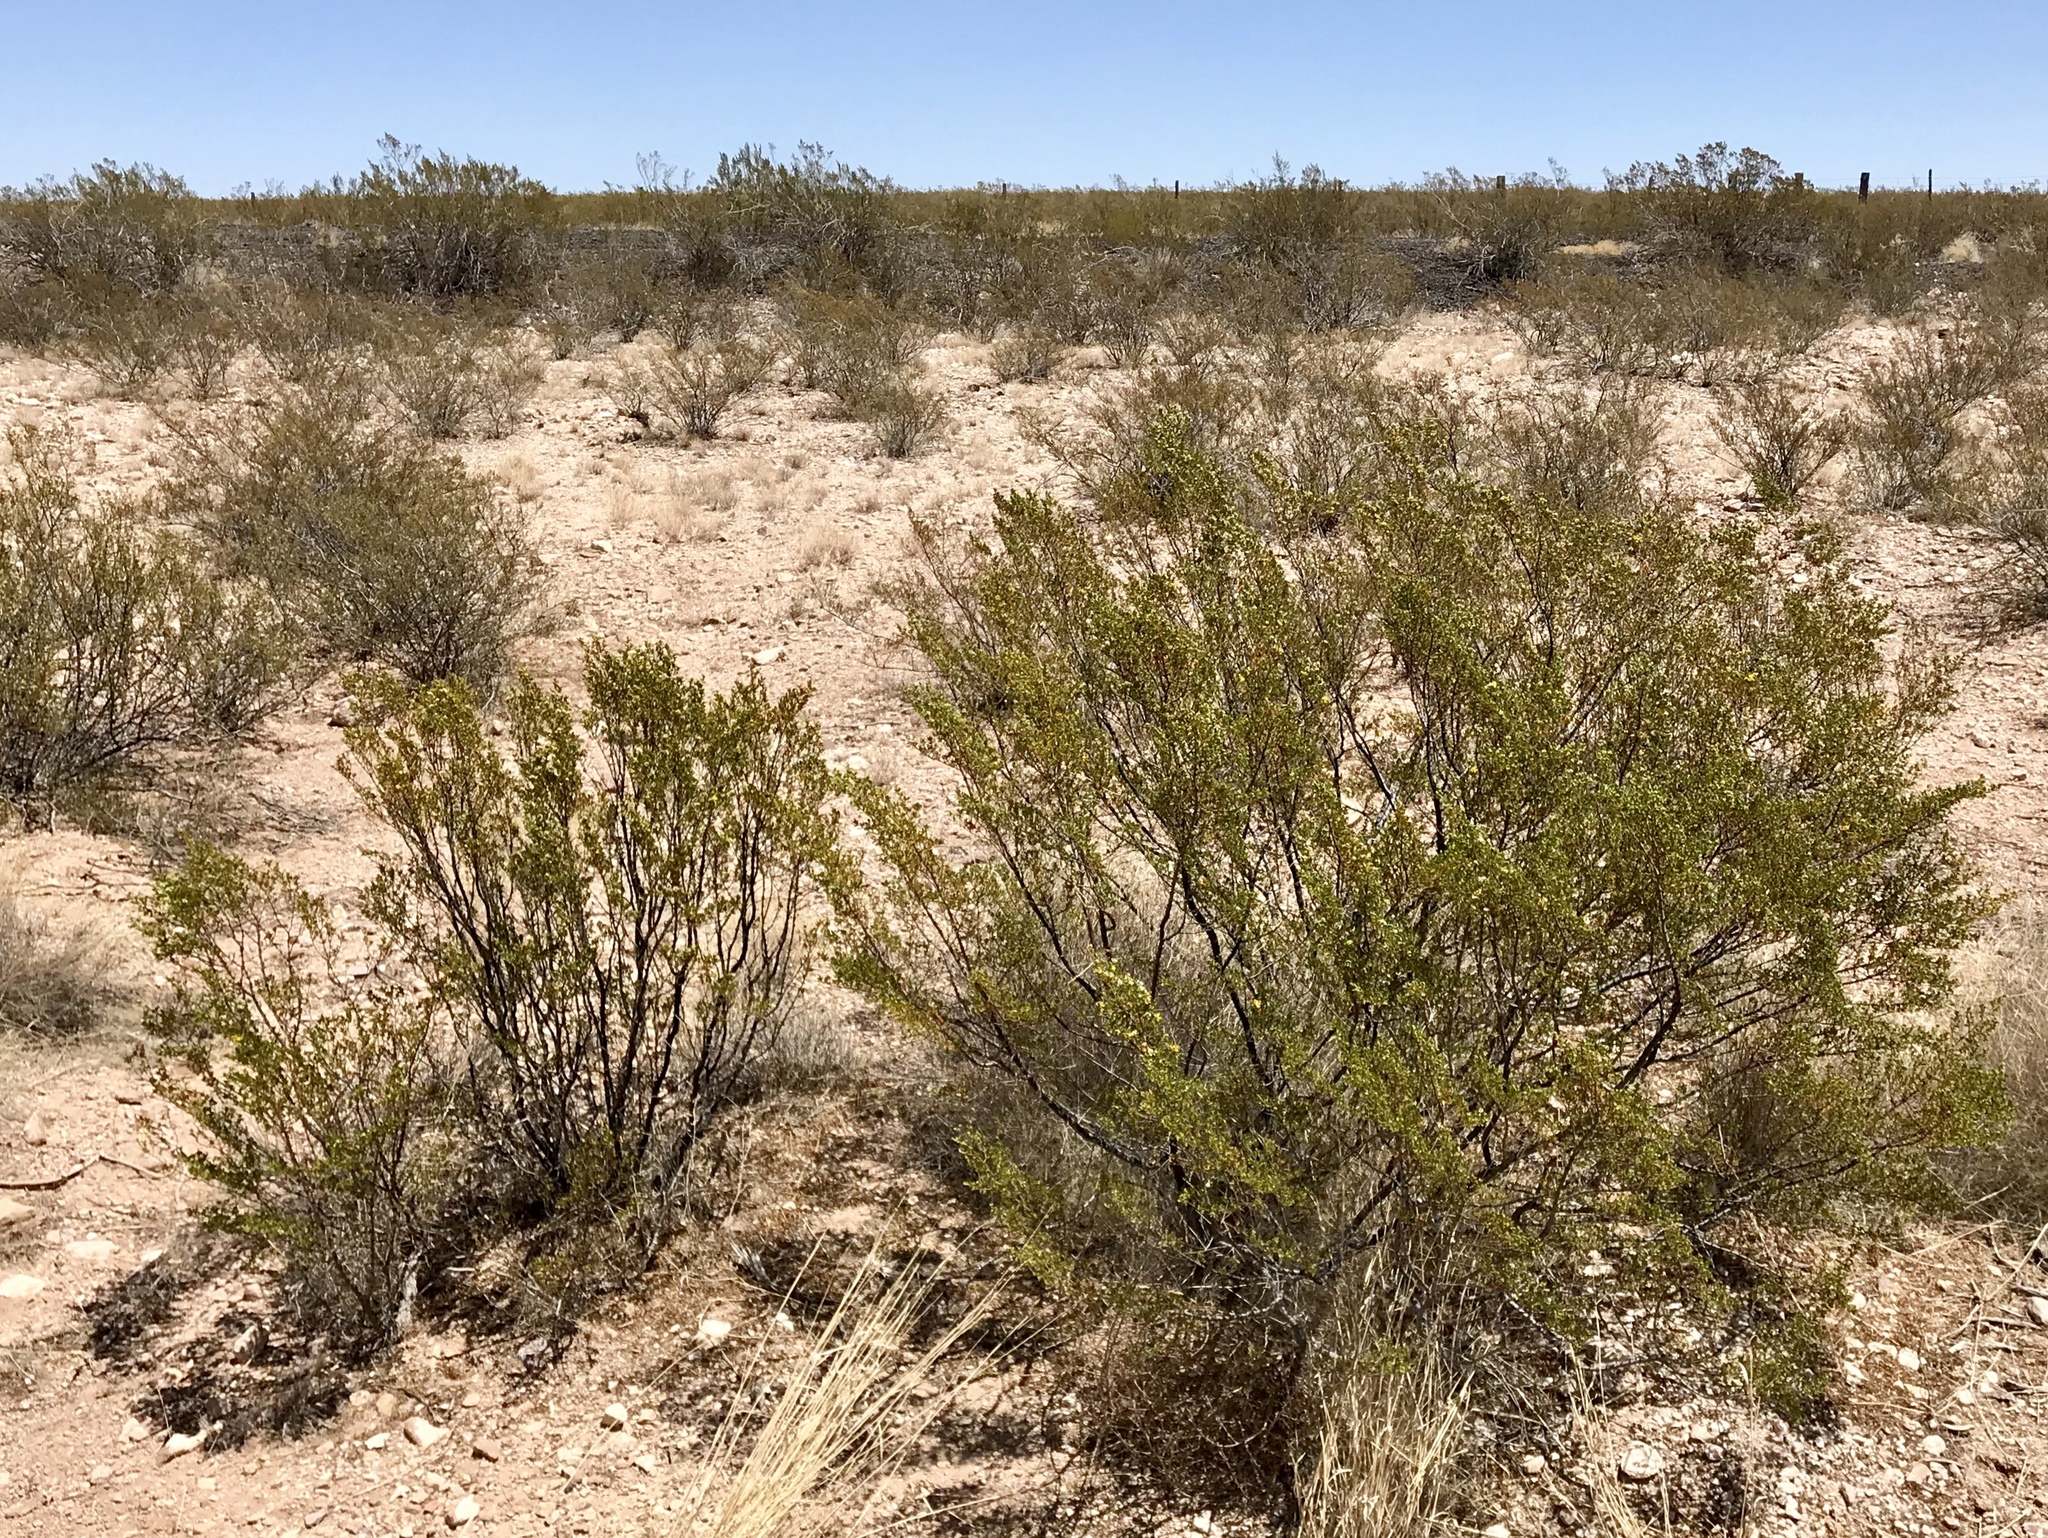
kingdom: Plantae
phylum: Tracheophyta
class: Magnoliopsida
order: Zygophyllales
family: Zygophyllaceae
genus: Larrea
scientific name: Larrea tridentata
